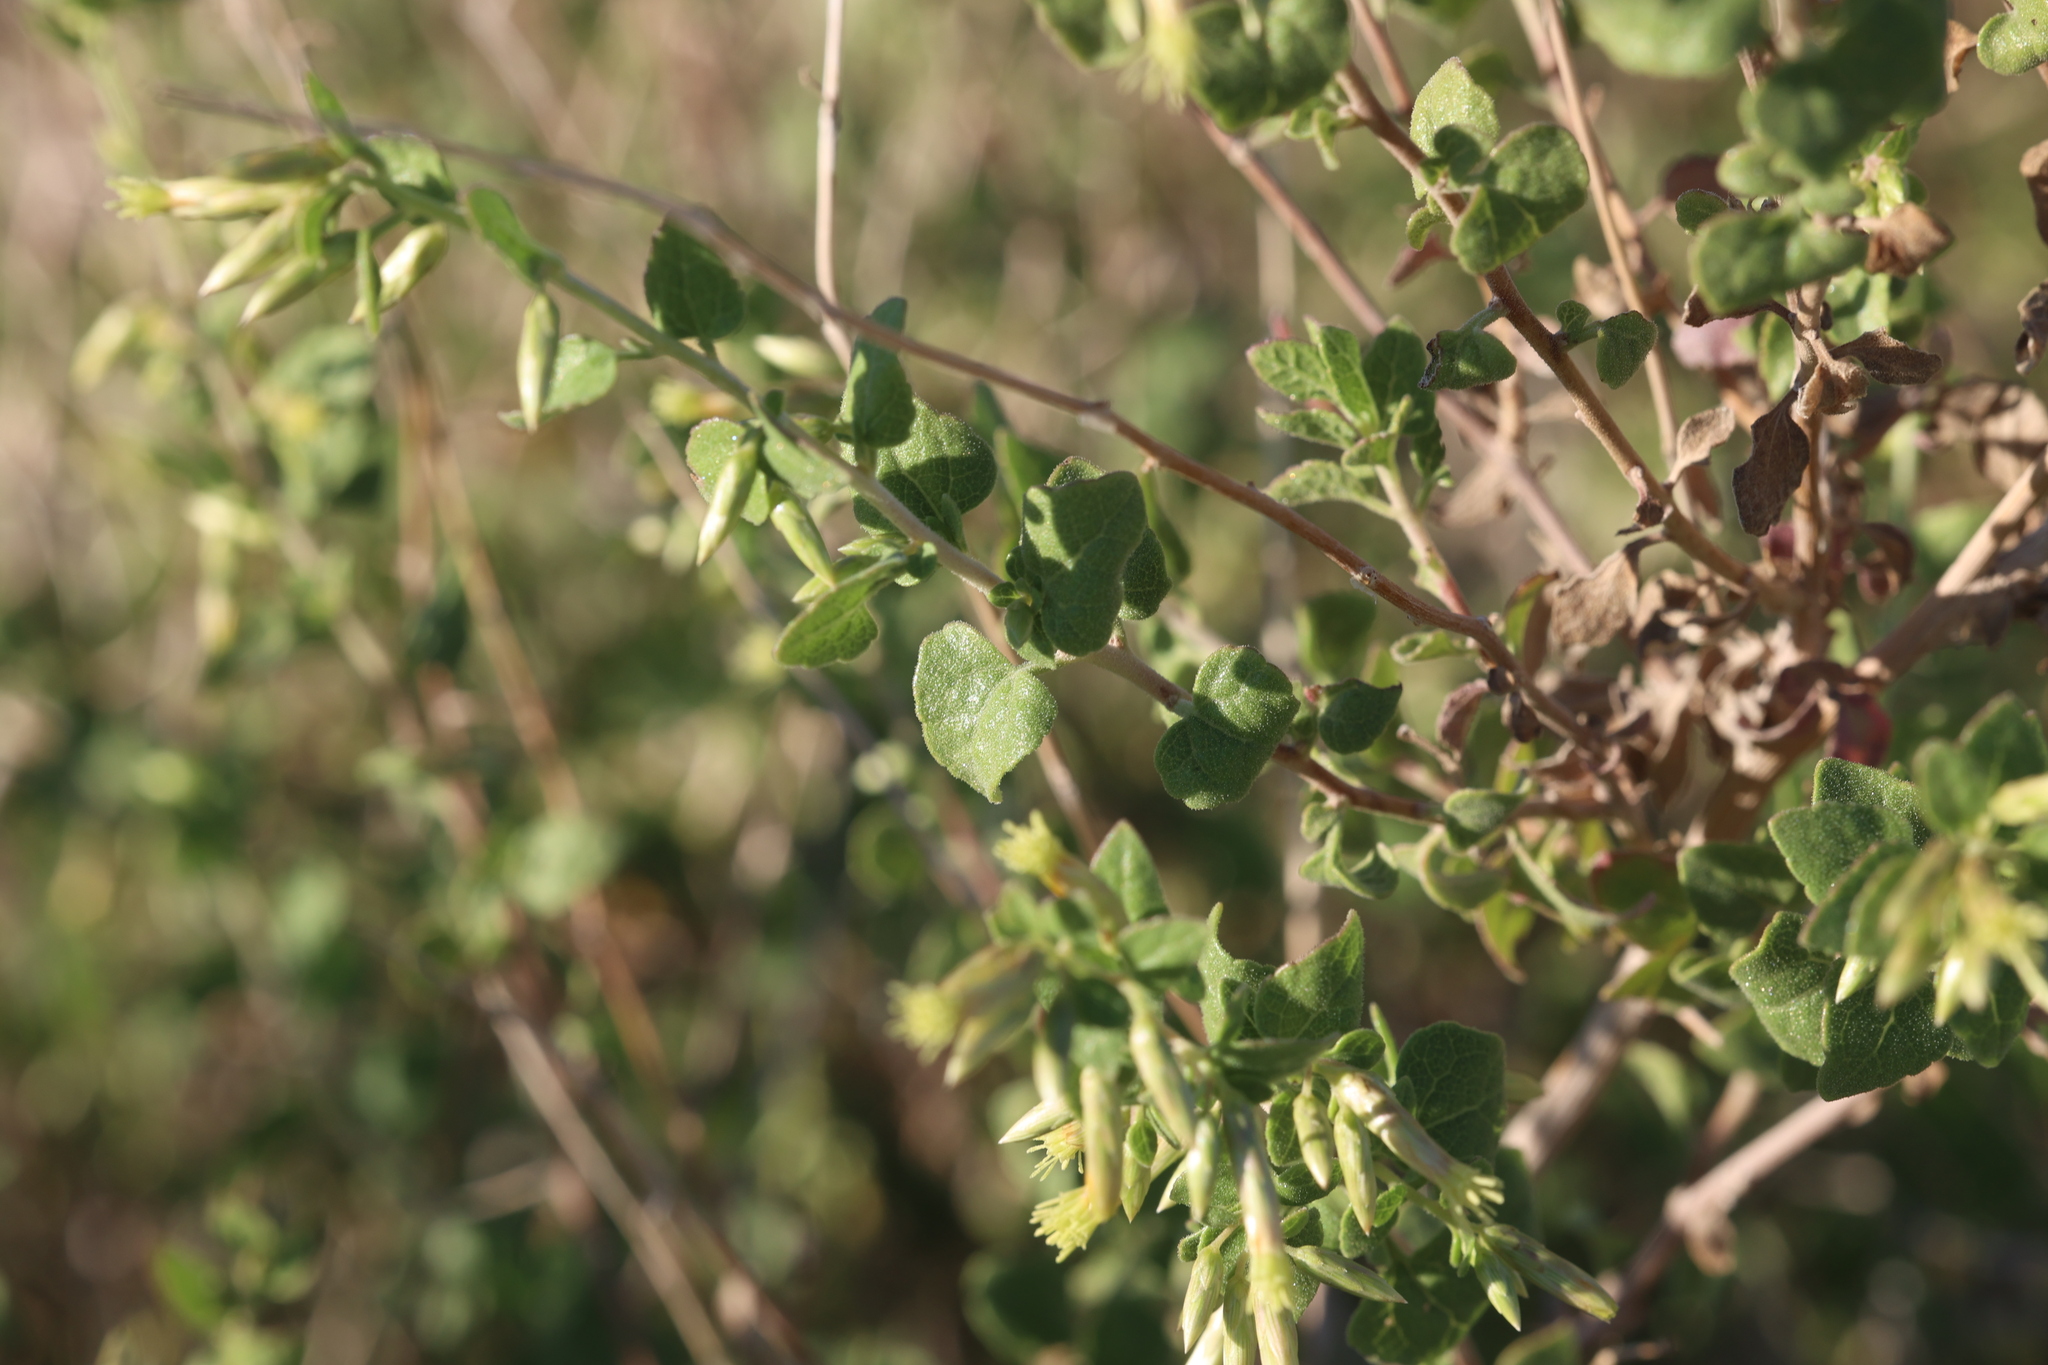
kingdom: Plantae
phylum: Tracheophyta
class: Magnoliopsida
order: Asterales
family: Asteraceae
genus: Brickellia
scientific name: Brickellia californica
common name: California brickellbush
